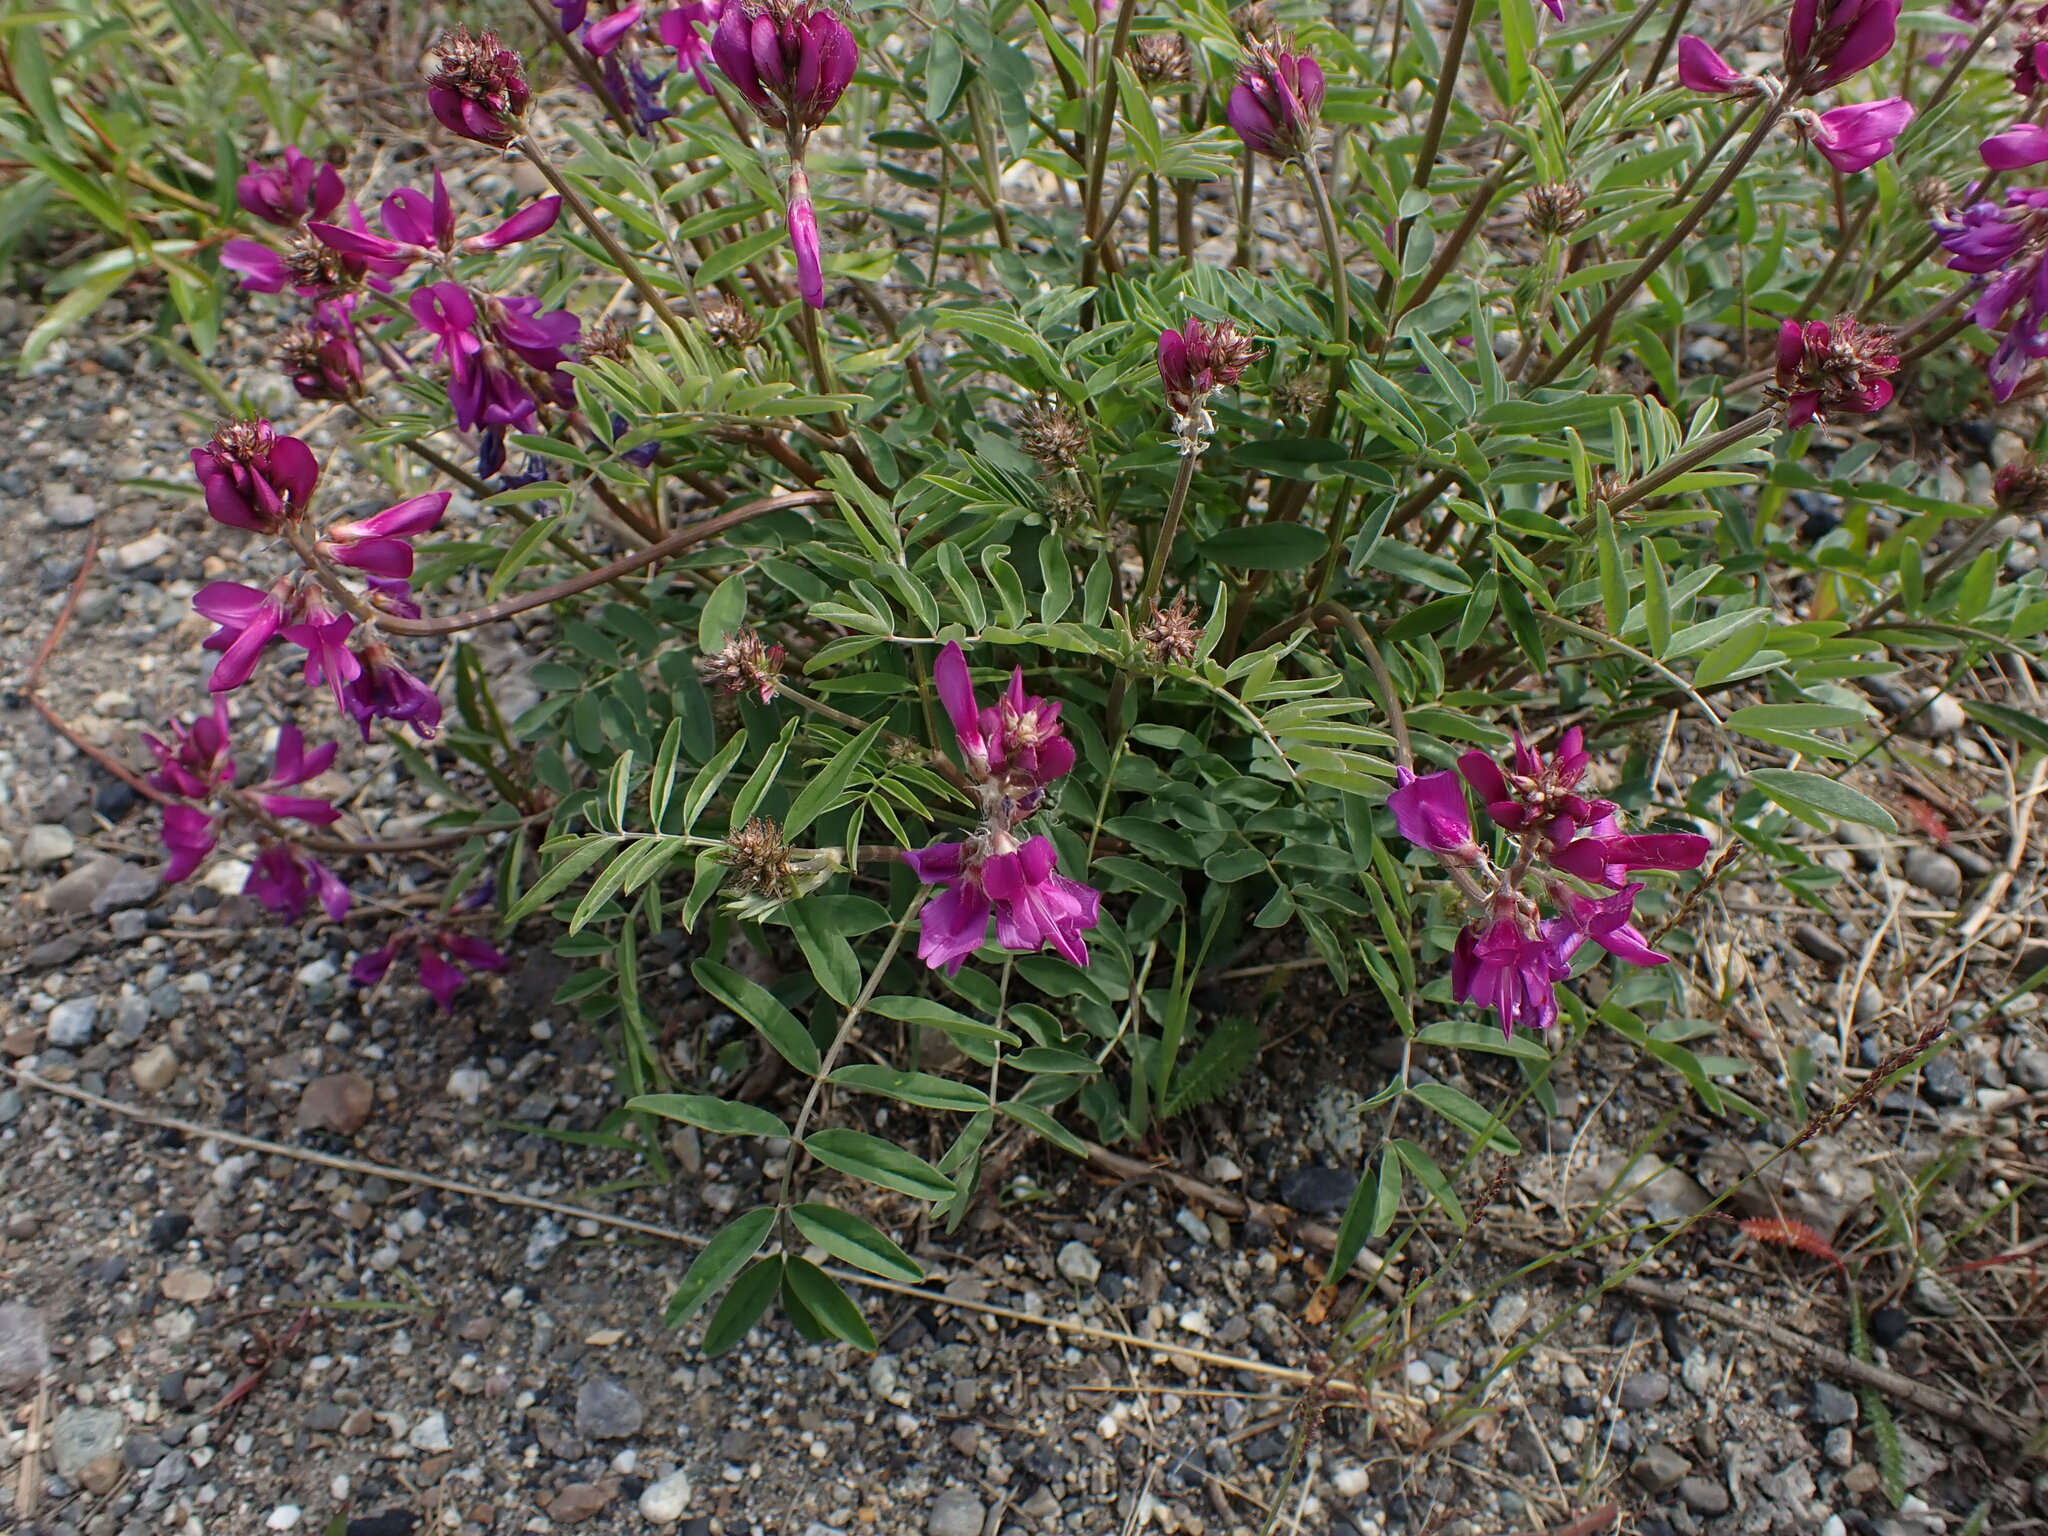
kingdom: Plantae
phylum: Tracheophyta
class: Magnoliopsida
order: Fabales
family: Fabaceae
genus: Hedysarum
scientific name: Hedysarum boreale
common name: Northern sweet-vetch
